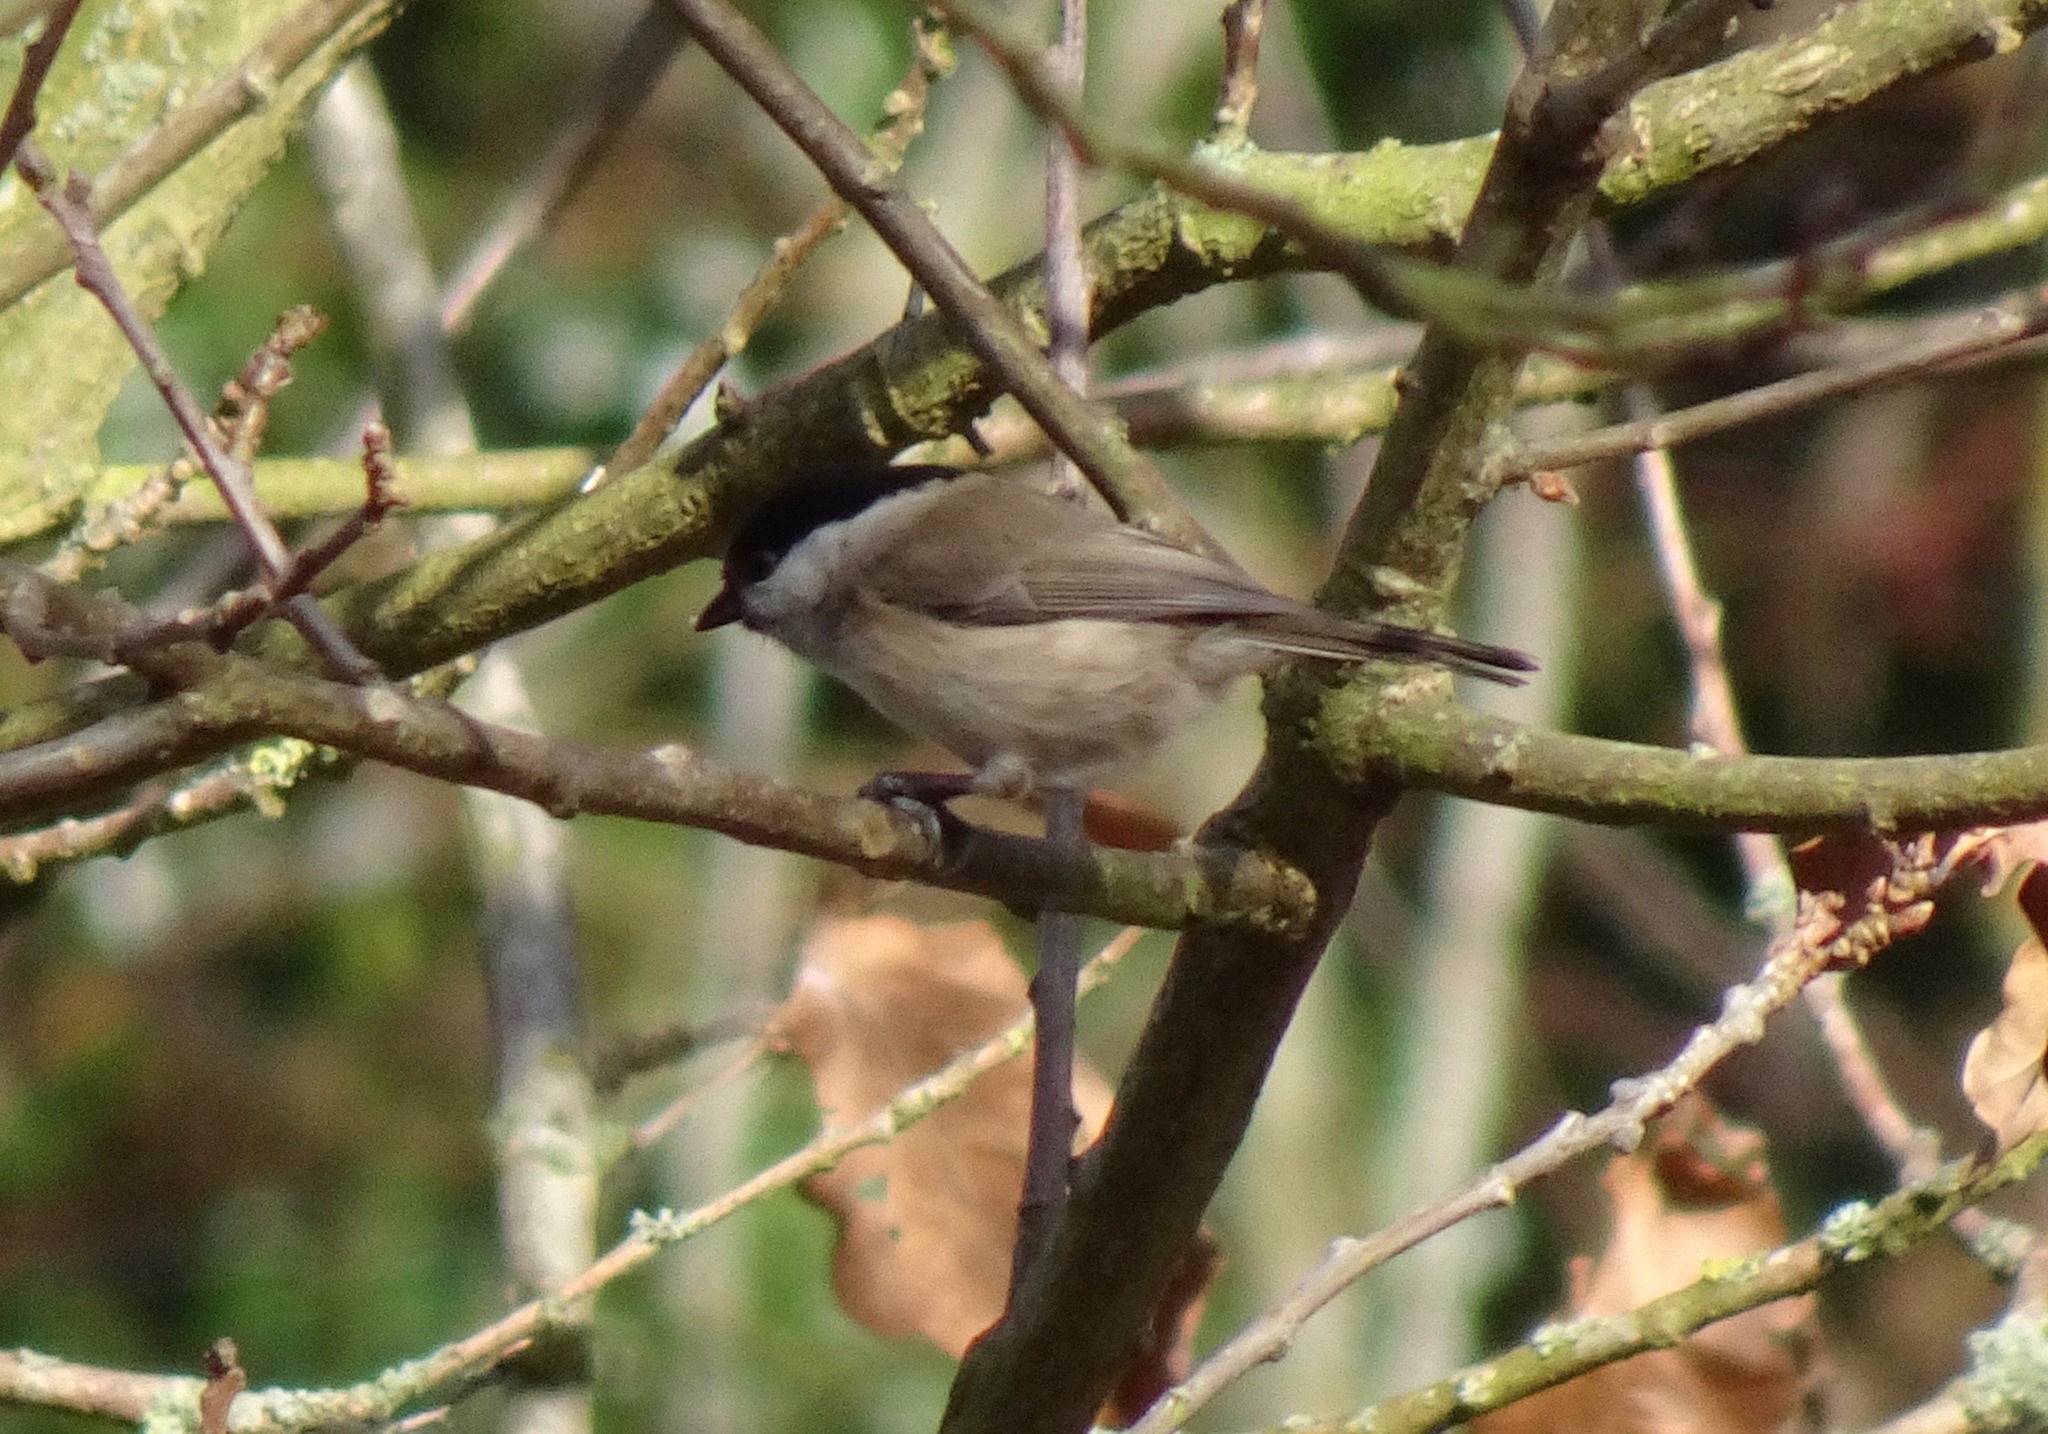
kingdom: Animalia
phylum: Chordata
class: Aves
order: Passeriformes
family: Paridae
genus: Poecile
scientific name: Poecile palustris
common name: Marsh tit
